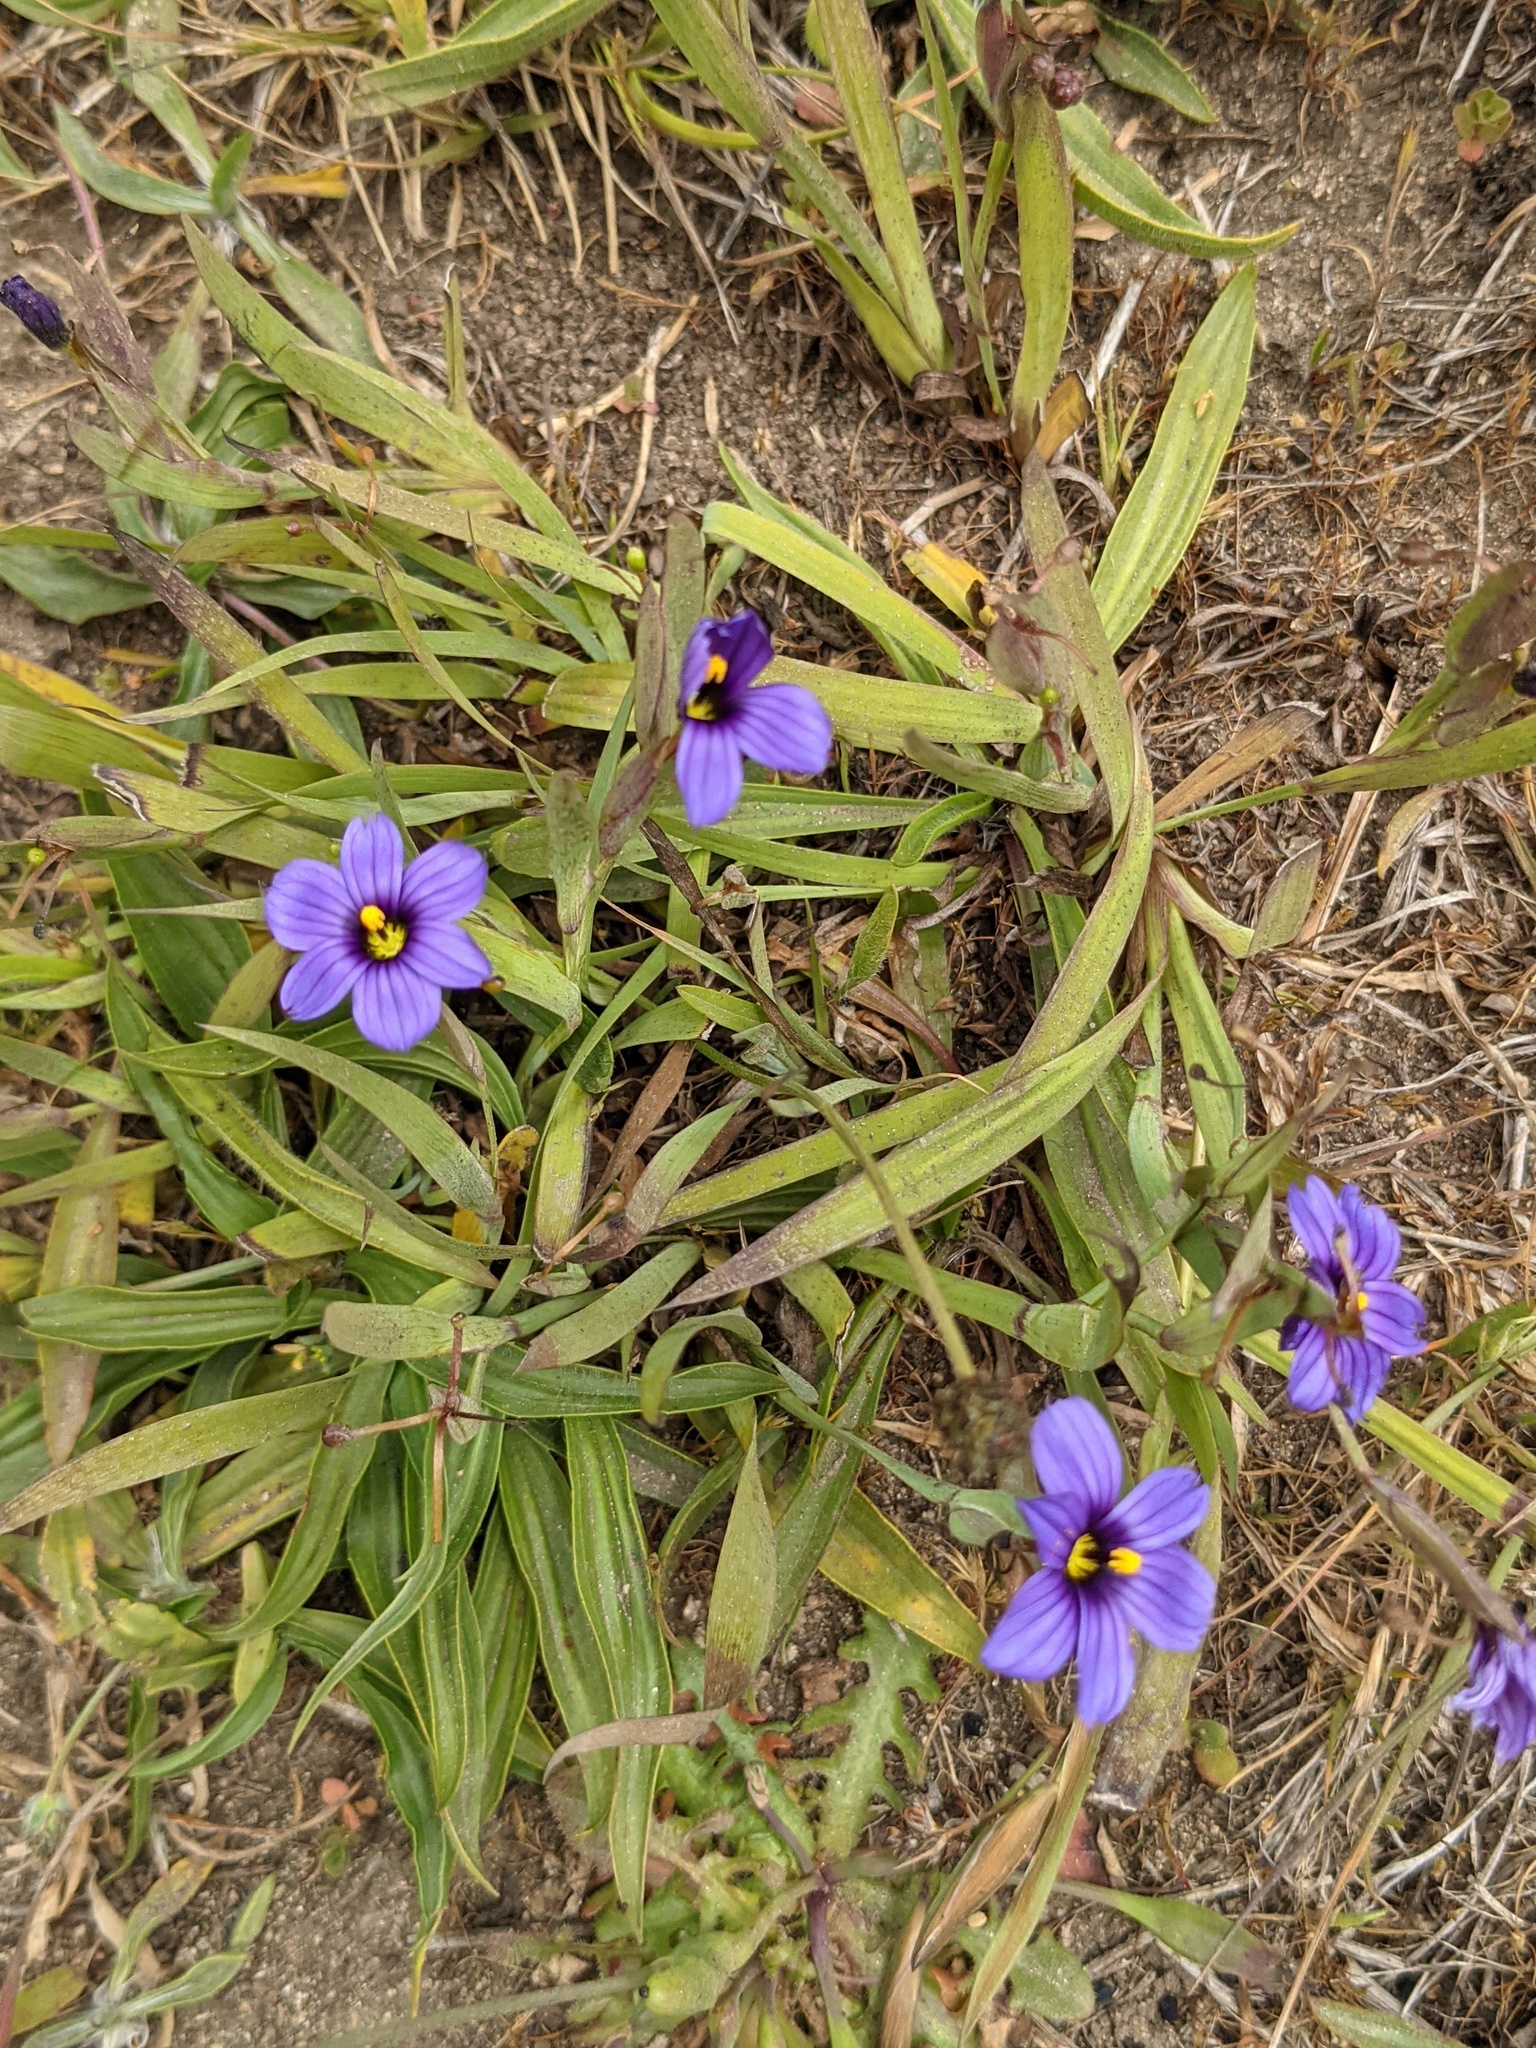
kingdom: Plantae
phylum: Tracheophyta
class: Liliopsida
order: Asparagales
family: Iridaceae
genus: Sisyrinchium
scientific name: Sisyrinchium bellum
